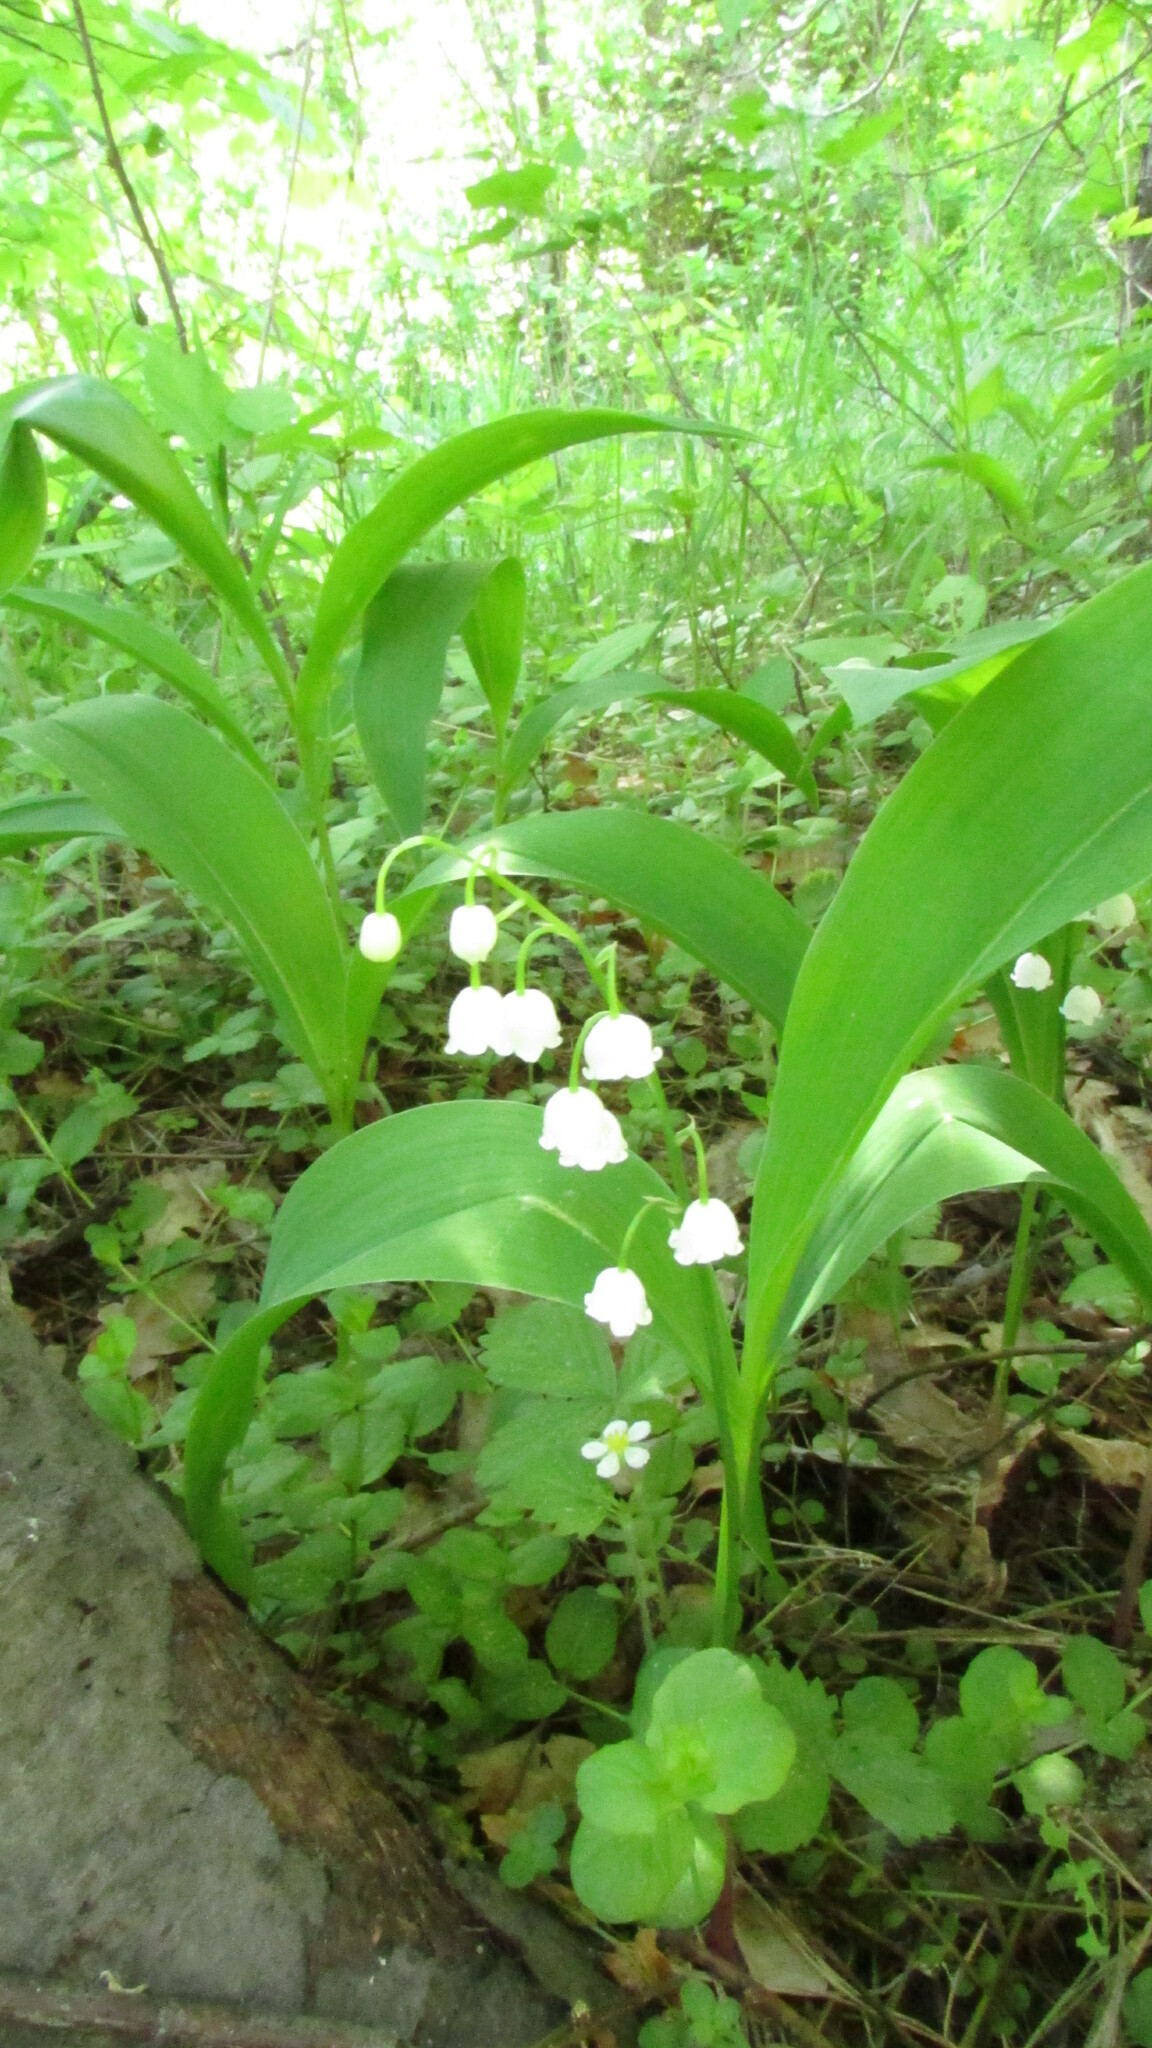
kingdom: Plantae
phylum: Tracheophyta
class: Liliopsida
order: Asparagales
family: Asparagaceae
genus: Convallaria
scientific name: Convallaria majalis
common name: Lily-of-the-valley
